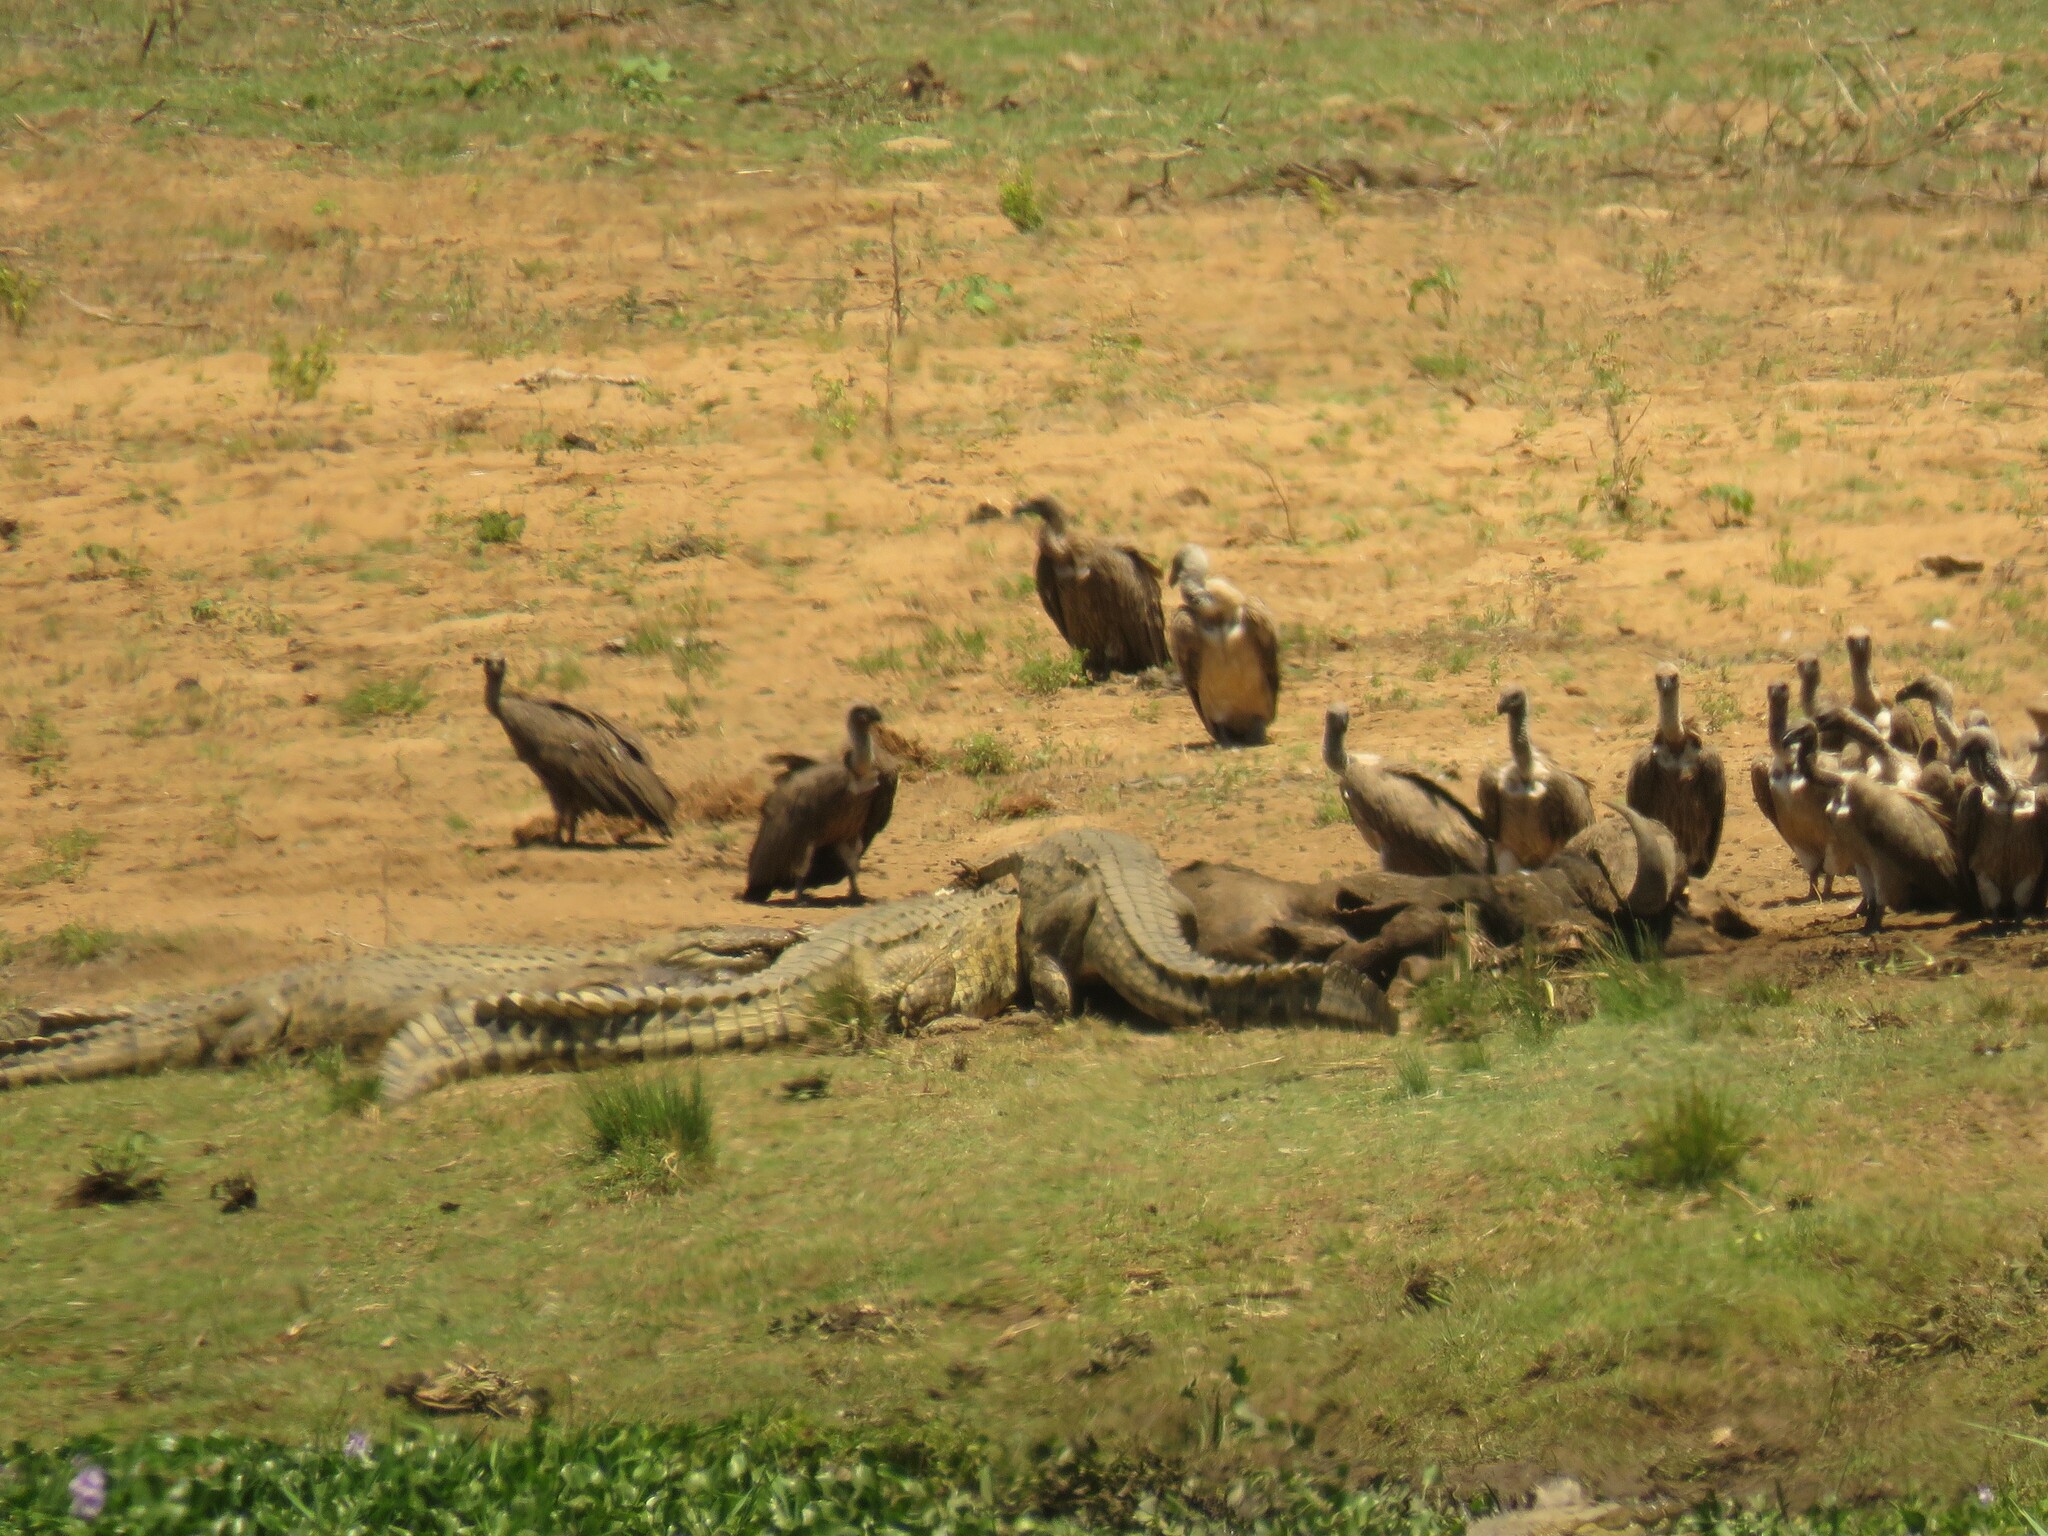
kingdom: Animalia
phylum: Chordata
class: Crocodylia
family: Crocodylidae
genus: Crocodylus
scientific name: Crocodylus niloticus
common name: Nile crocodile
